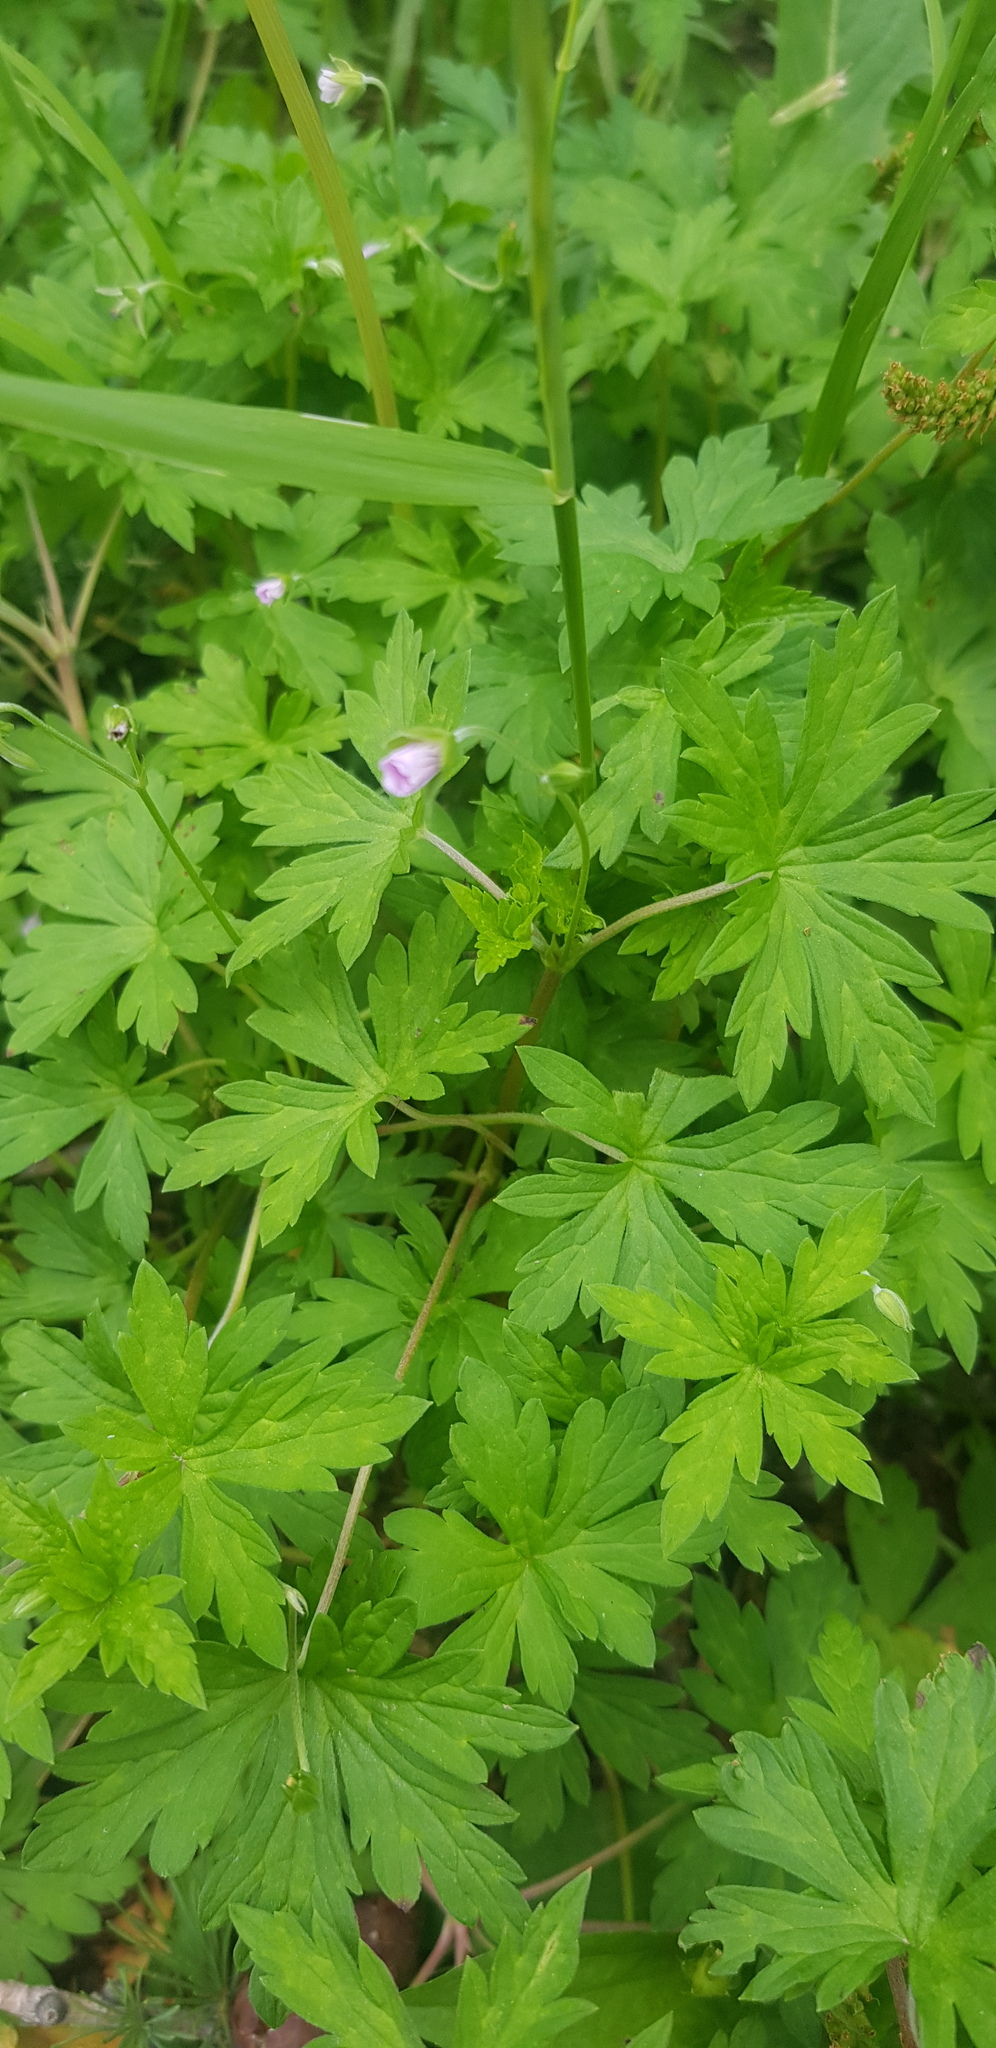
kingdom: Plantae
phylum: Tracheophyta
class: Magnoliopsida
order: Geraniales
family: Geraniaceae
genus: Geranium
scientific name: Geranium sibiricum
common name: Siberian crane's-bill
